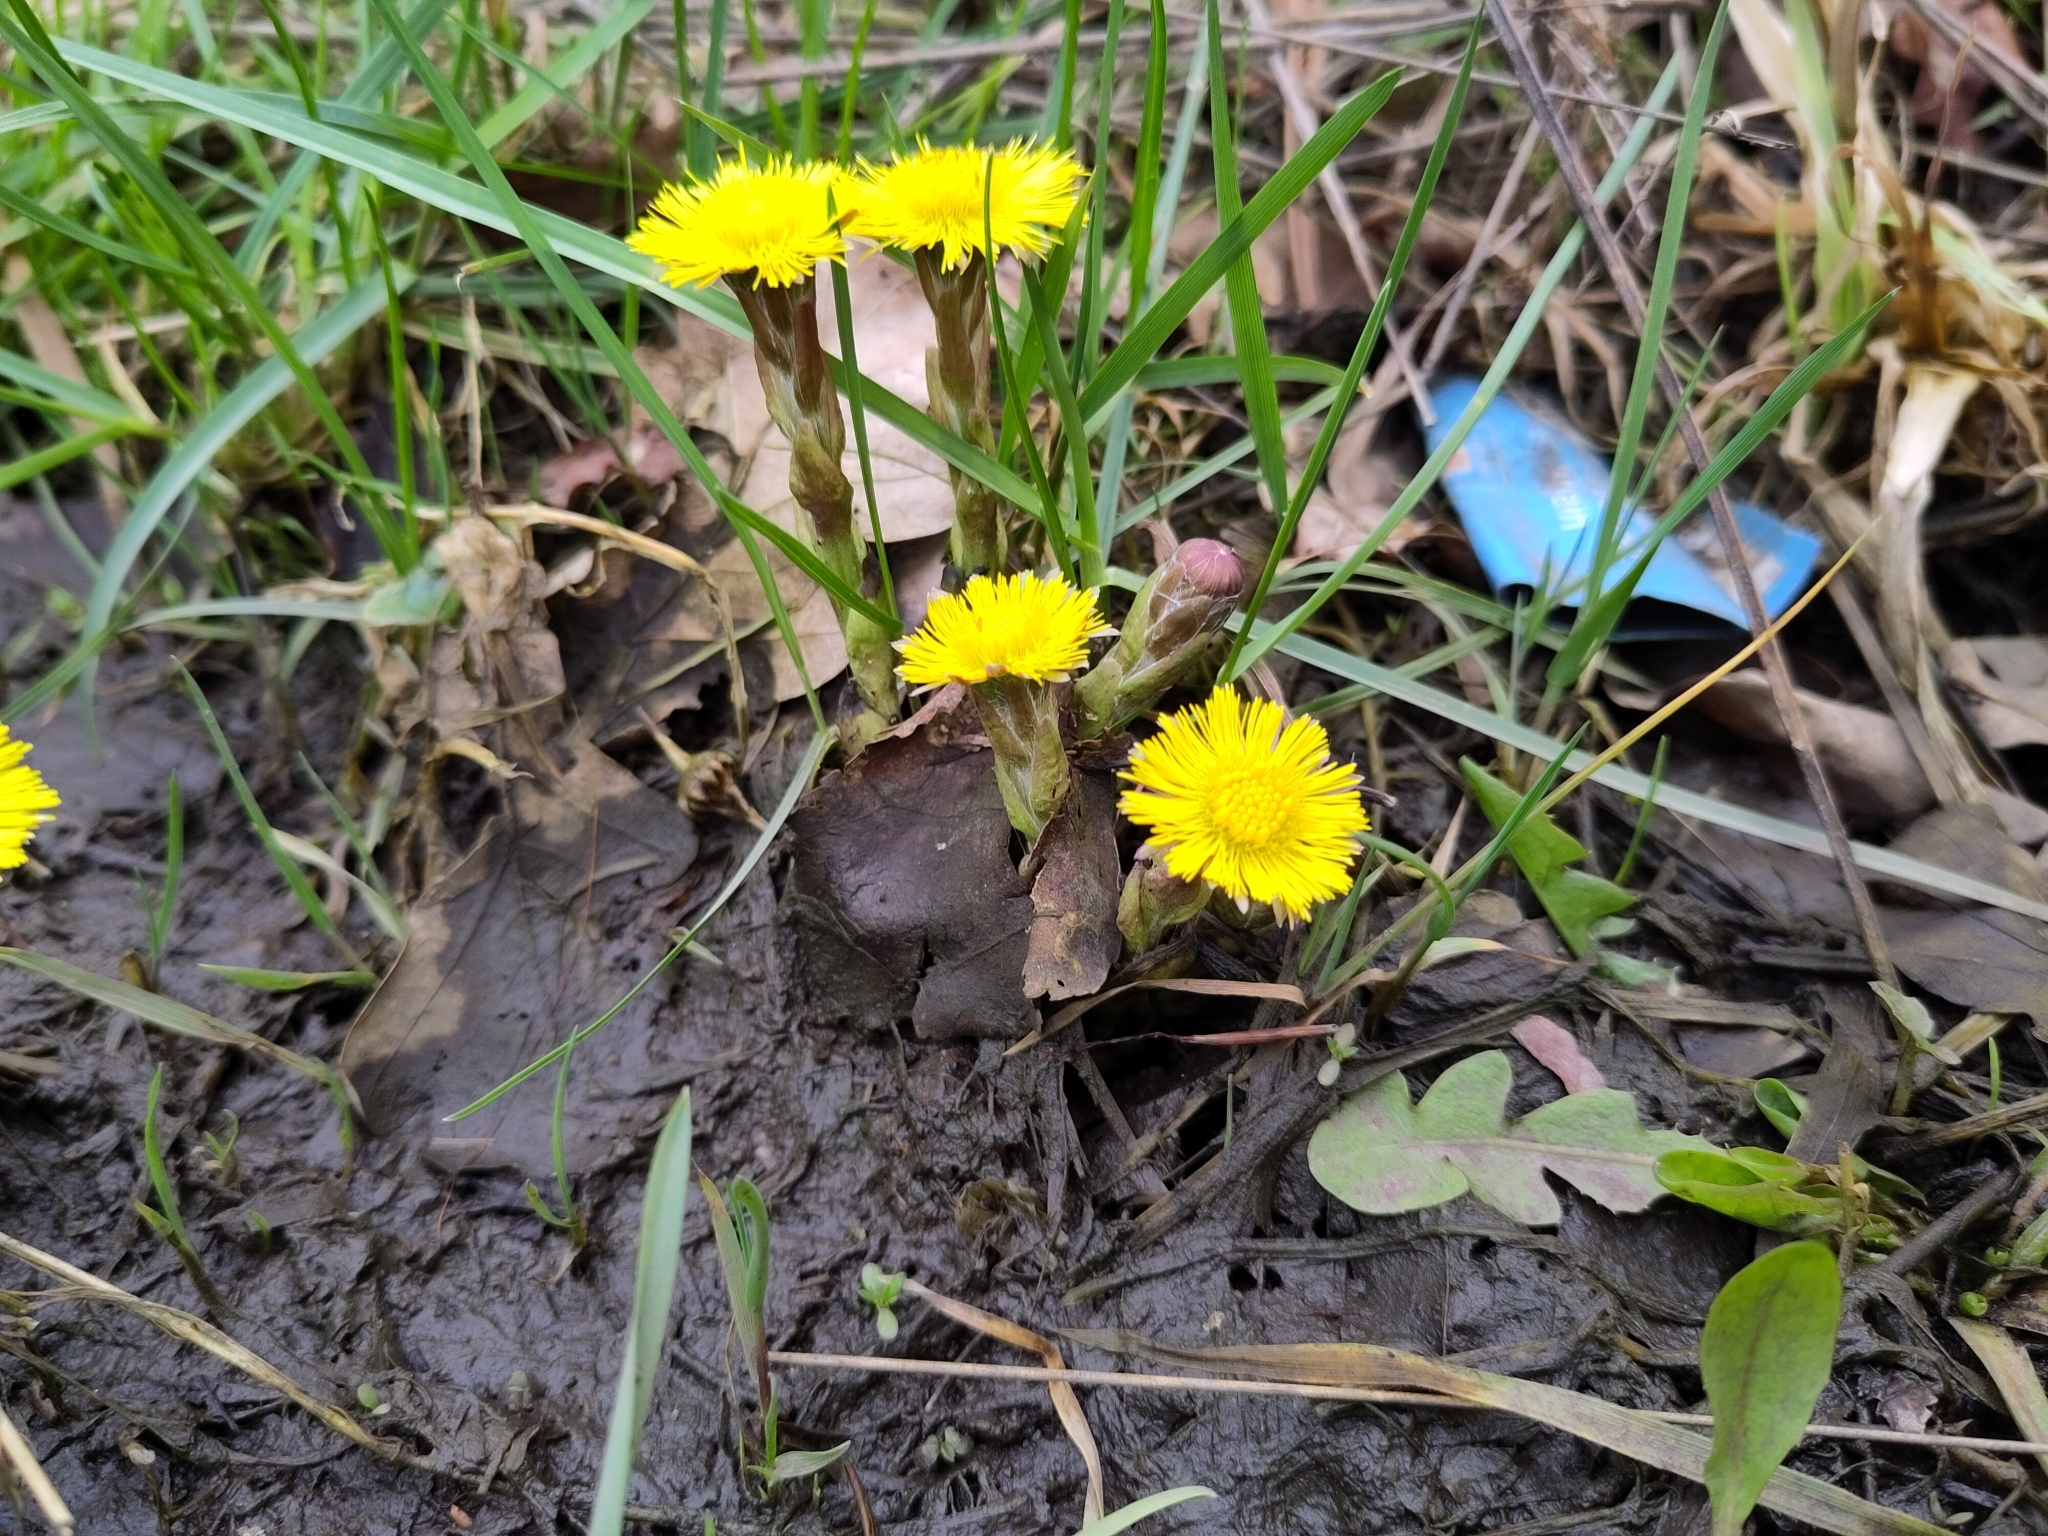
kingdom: Plantae
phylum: Tracheophyta
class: Magnoliopsida
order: Asterales
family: Asteraceae
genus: Tussilago
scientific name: Tussilago farfara
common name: Coltsfoot
